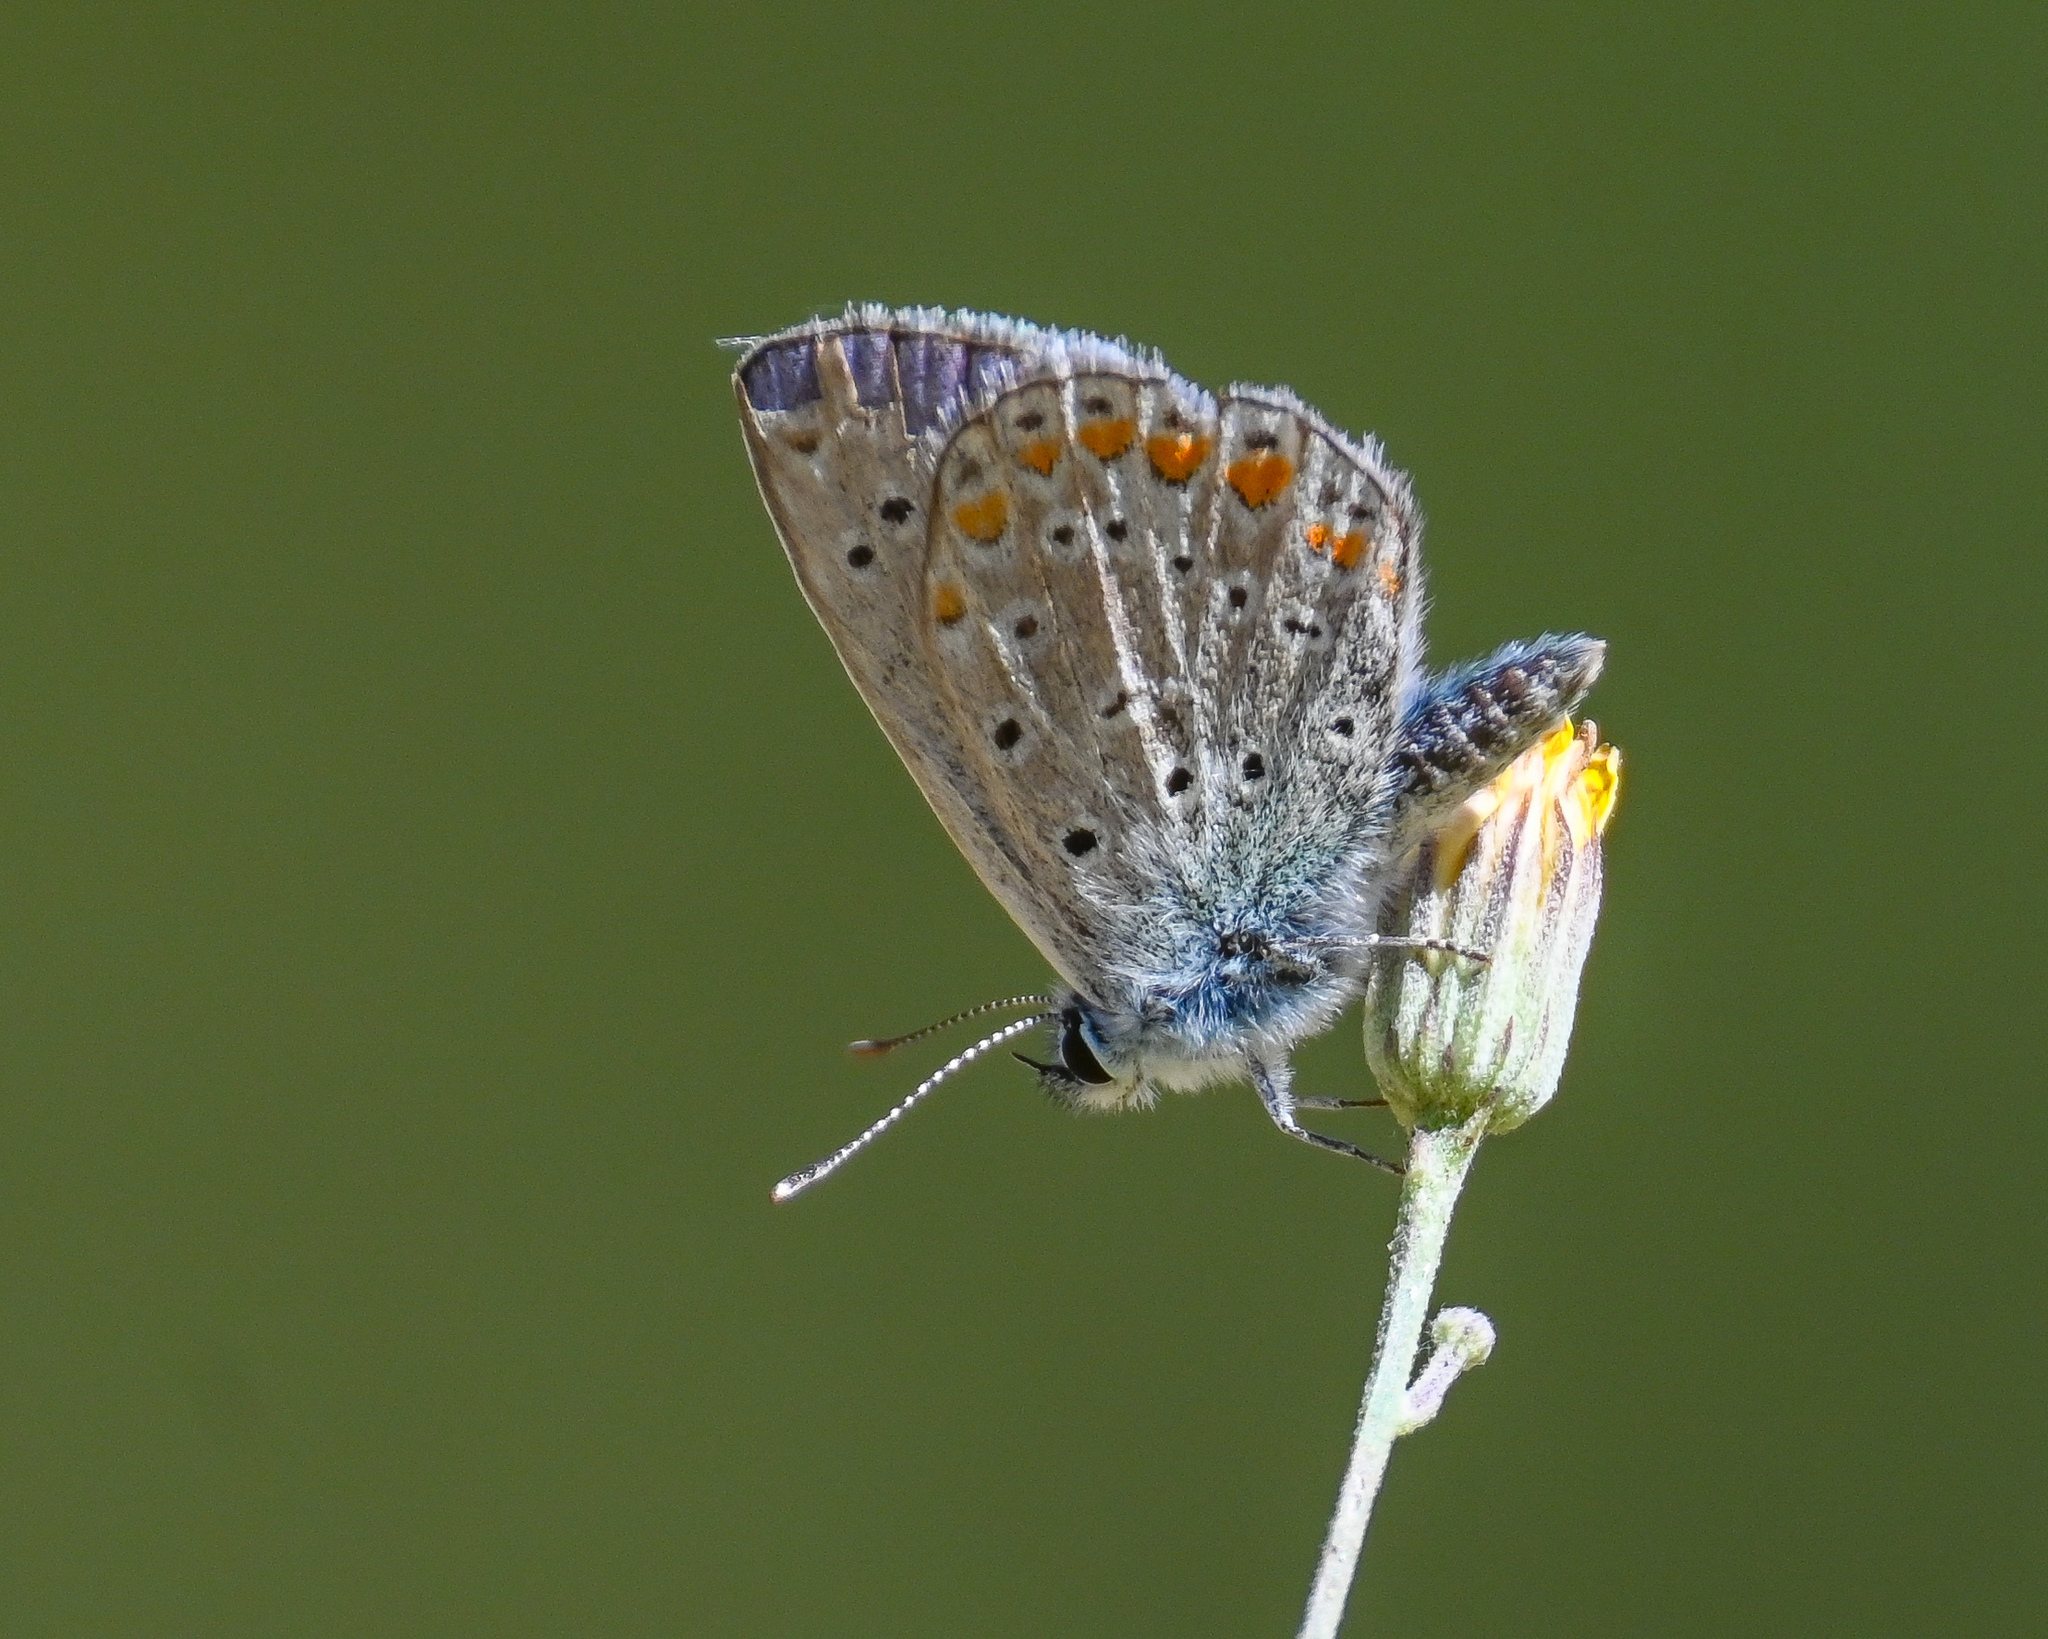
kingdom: Animalia
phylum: Arthropoda
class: Insecta
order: Lepidoptera
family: Lycaenidae
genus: Polyommatus
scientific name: Polyommatus icarus
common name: Common blue
